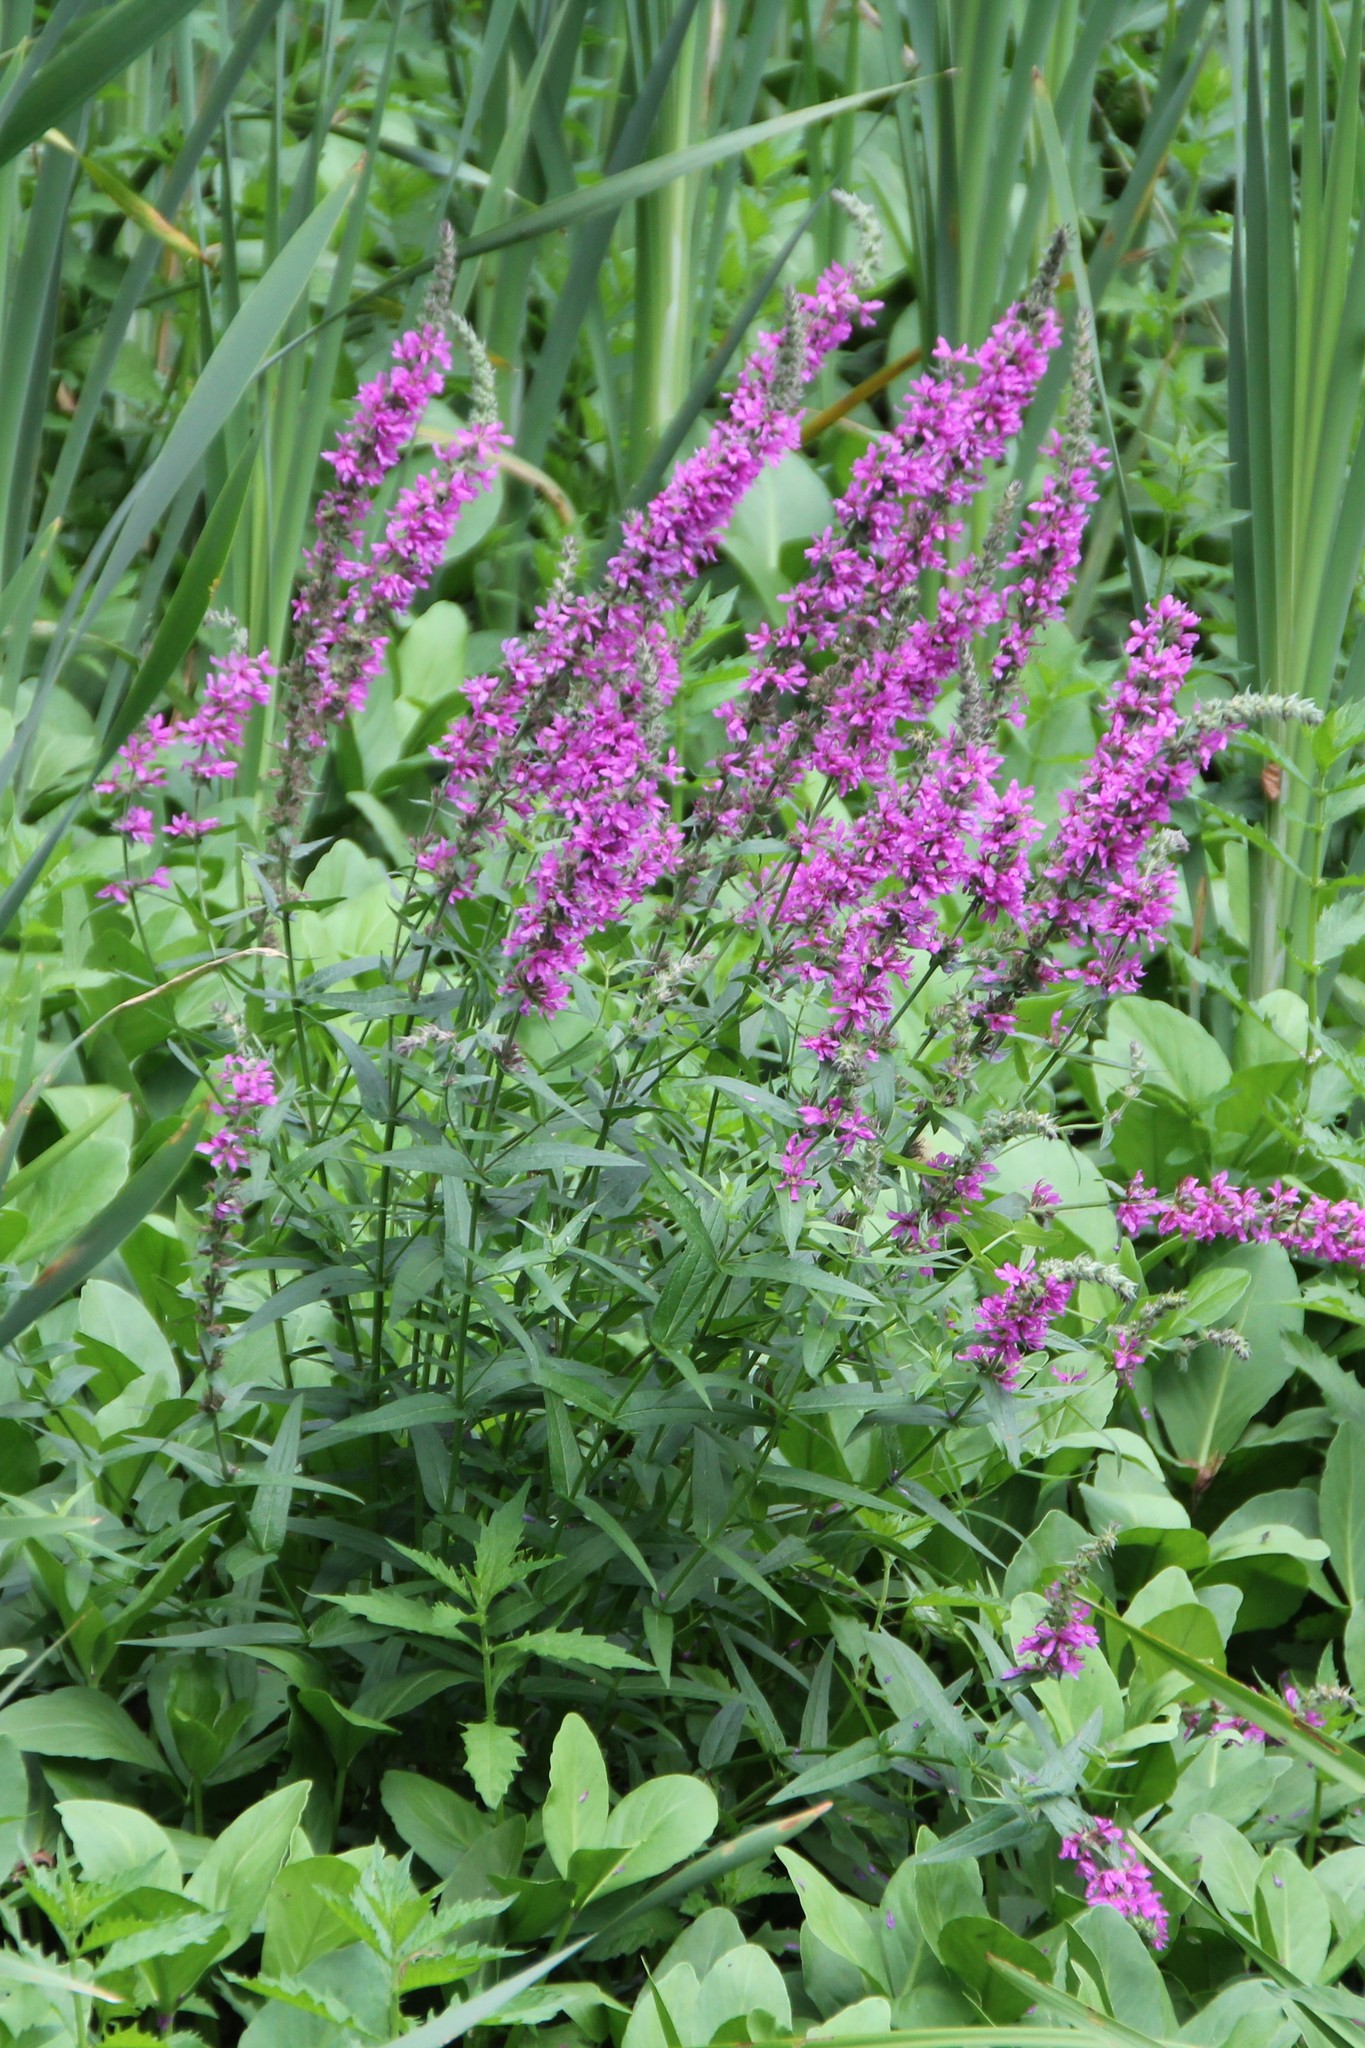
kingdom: Plantae
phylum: Tracheophyta
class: Magnoliopsida
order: Myrtales
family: Lythraceae
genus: Lythrum
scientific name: Lythrum salicaria
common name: Purple loosestrife
